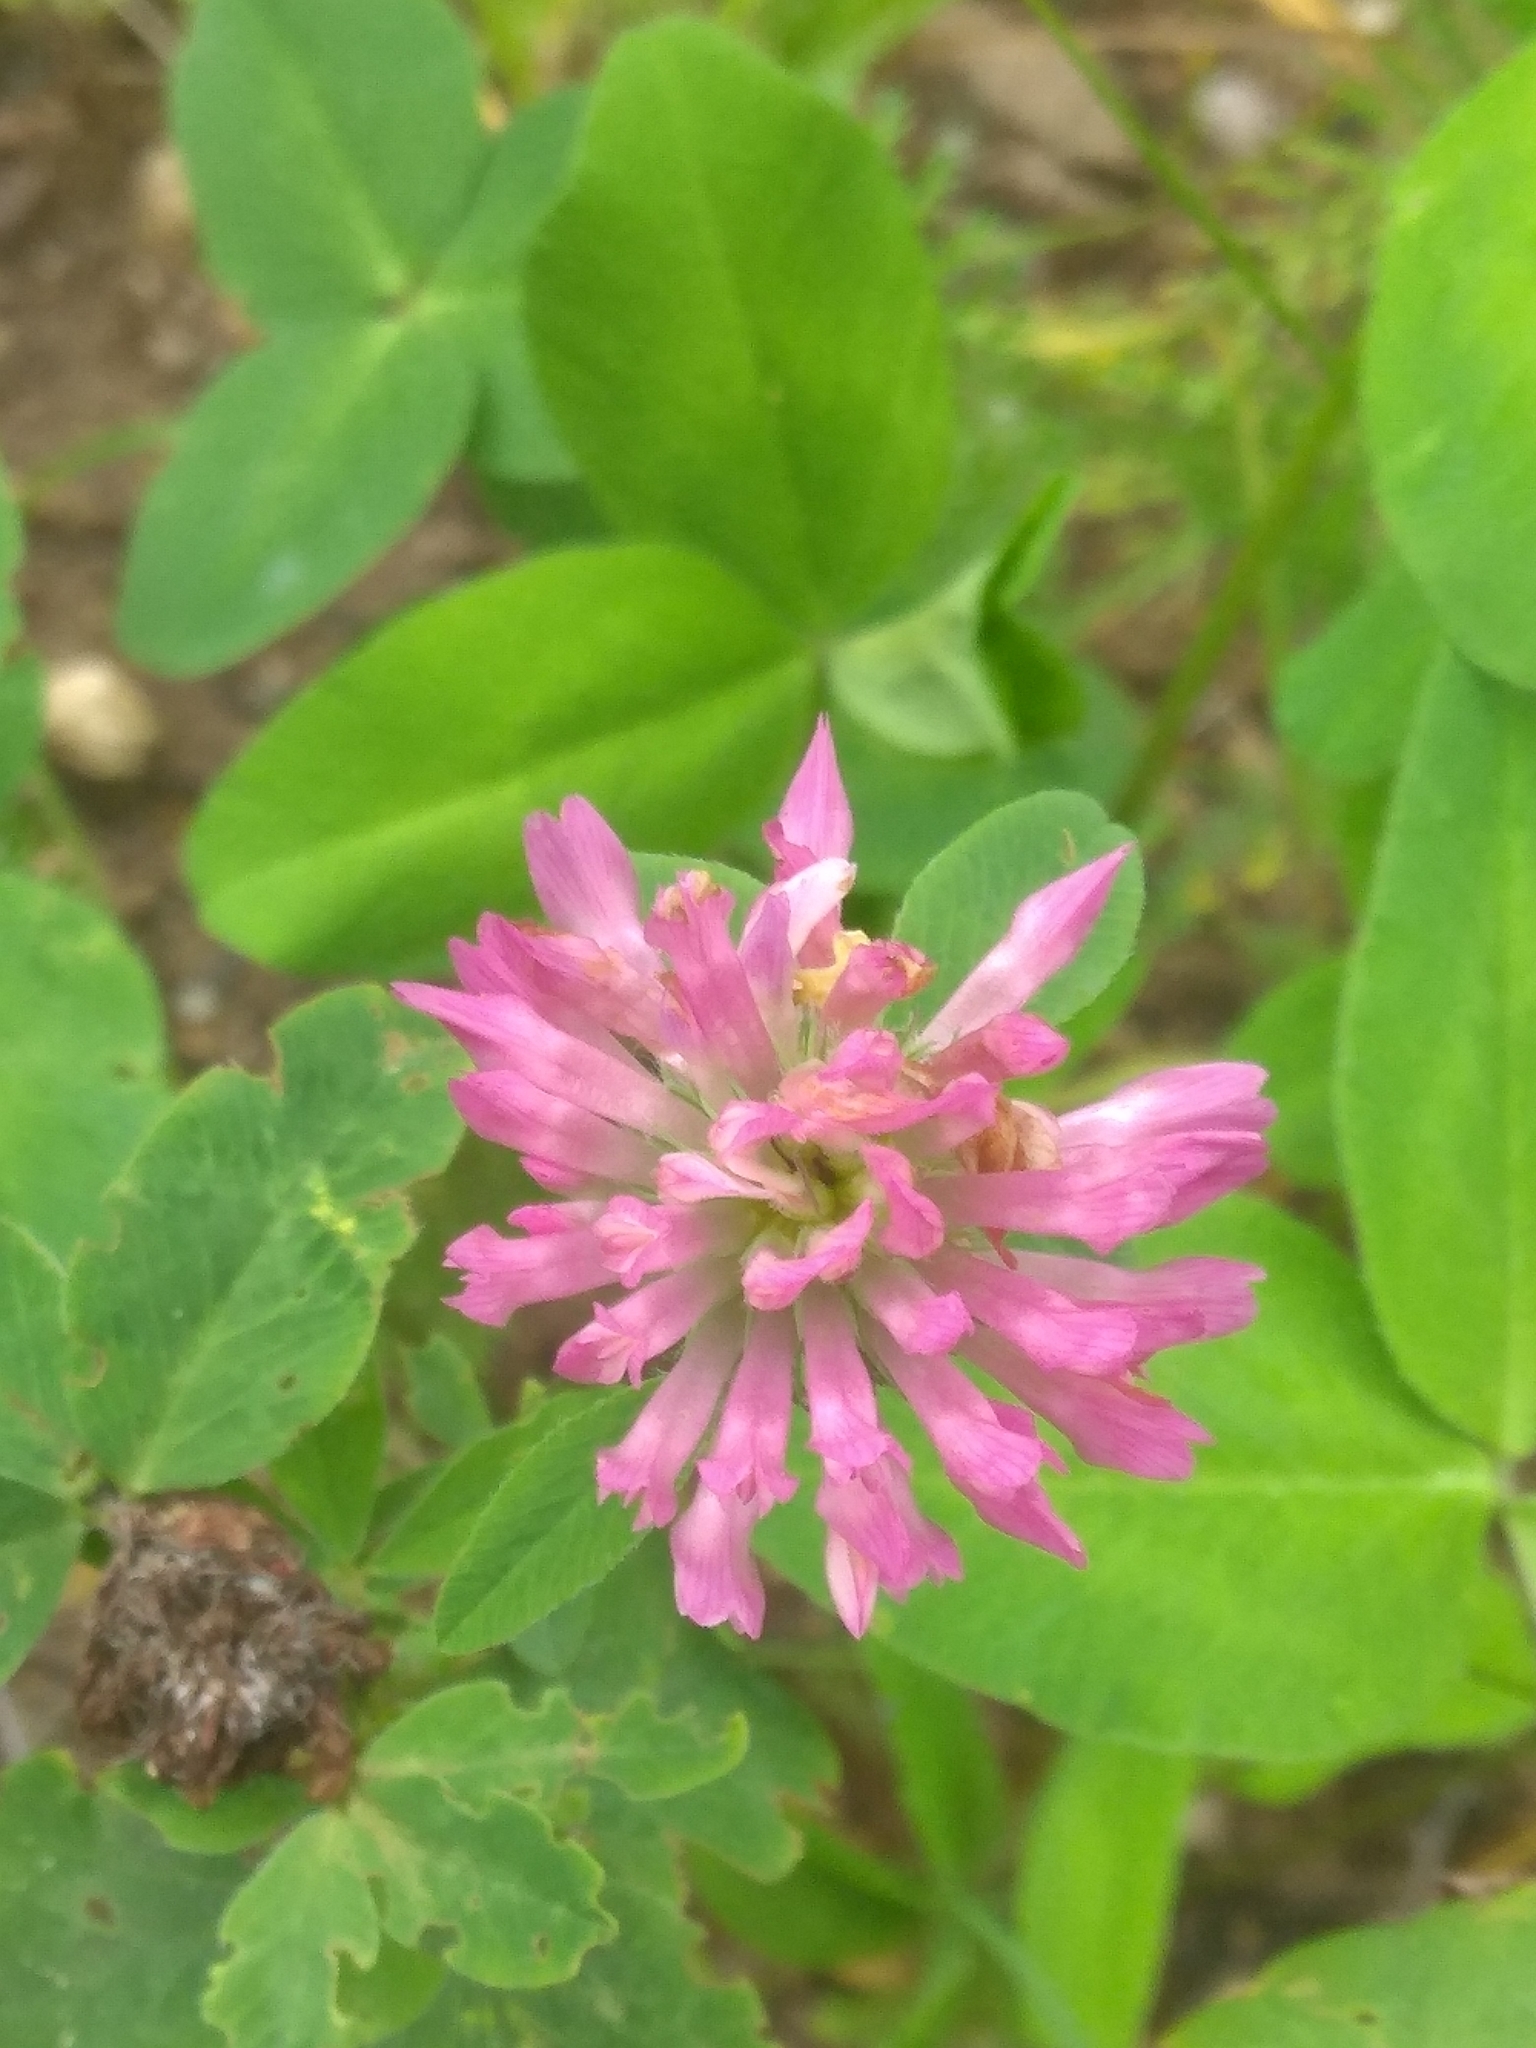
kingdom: Plantae
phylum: Tracheophyta
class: Magnoliopsida
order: Fabales
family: Fabaceae
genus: Trifolium
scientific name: Trifolium hybridum
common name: Alsike clover
